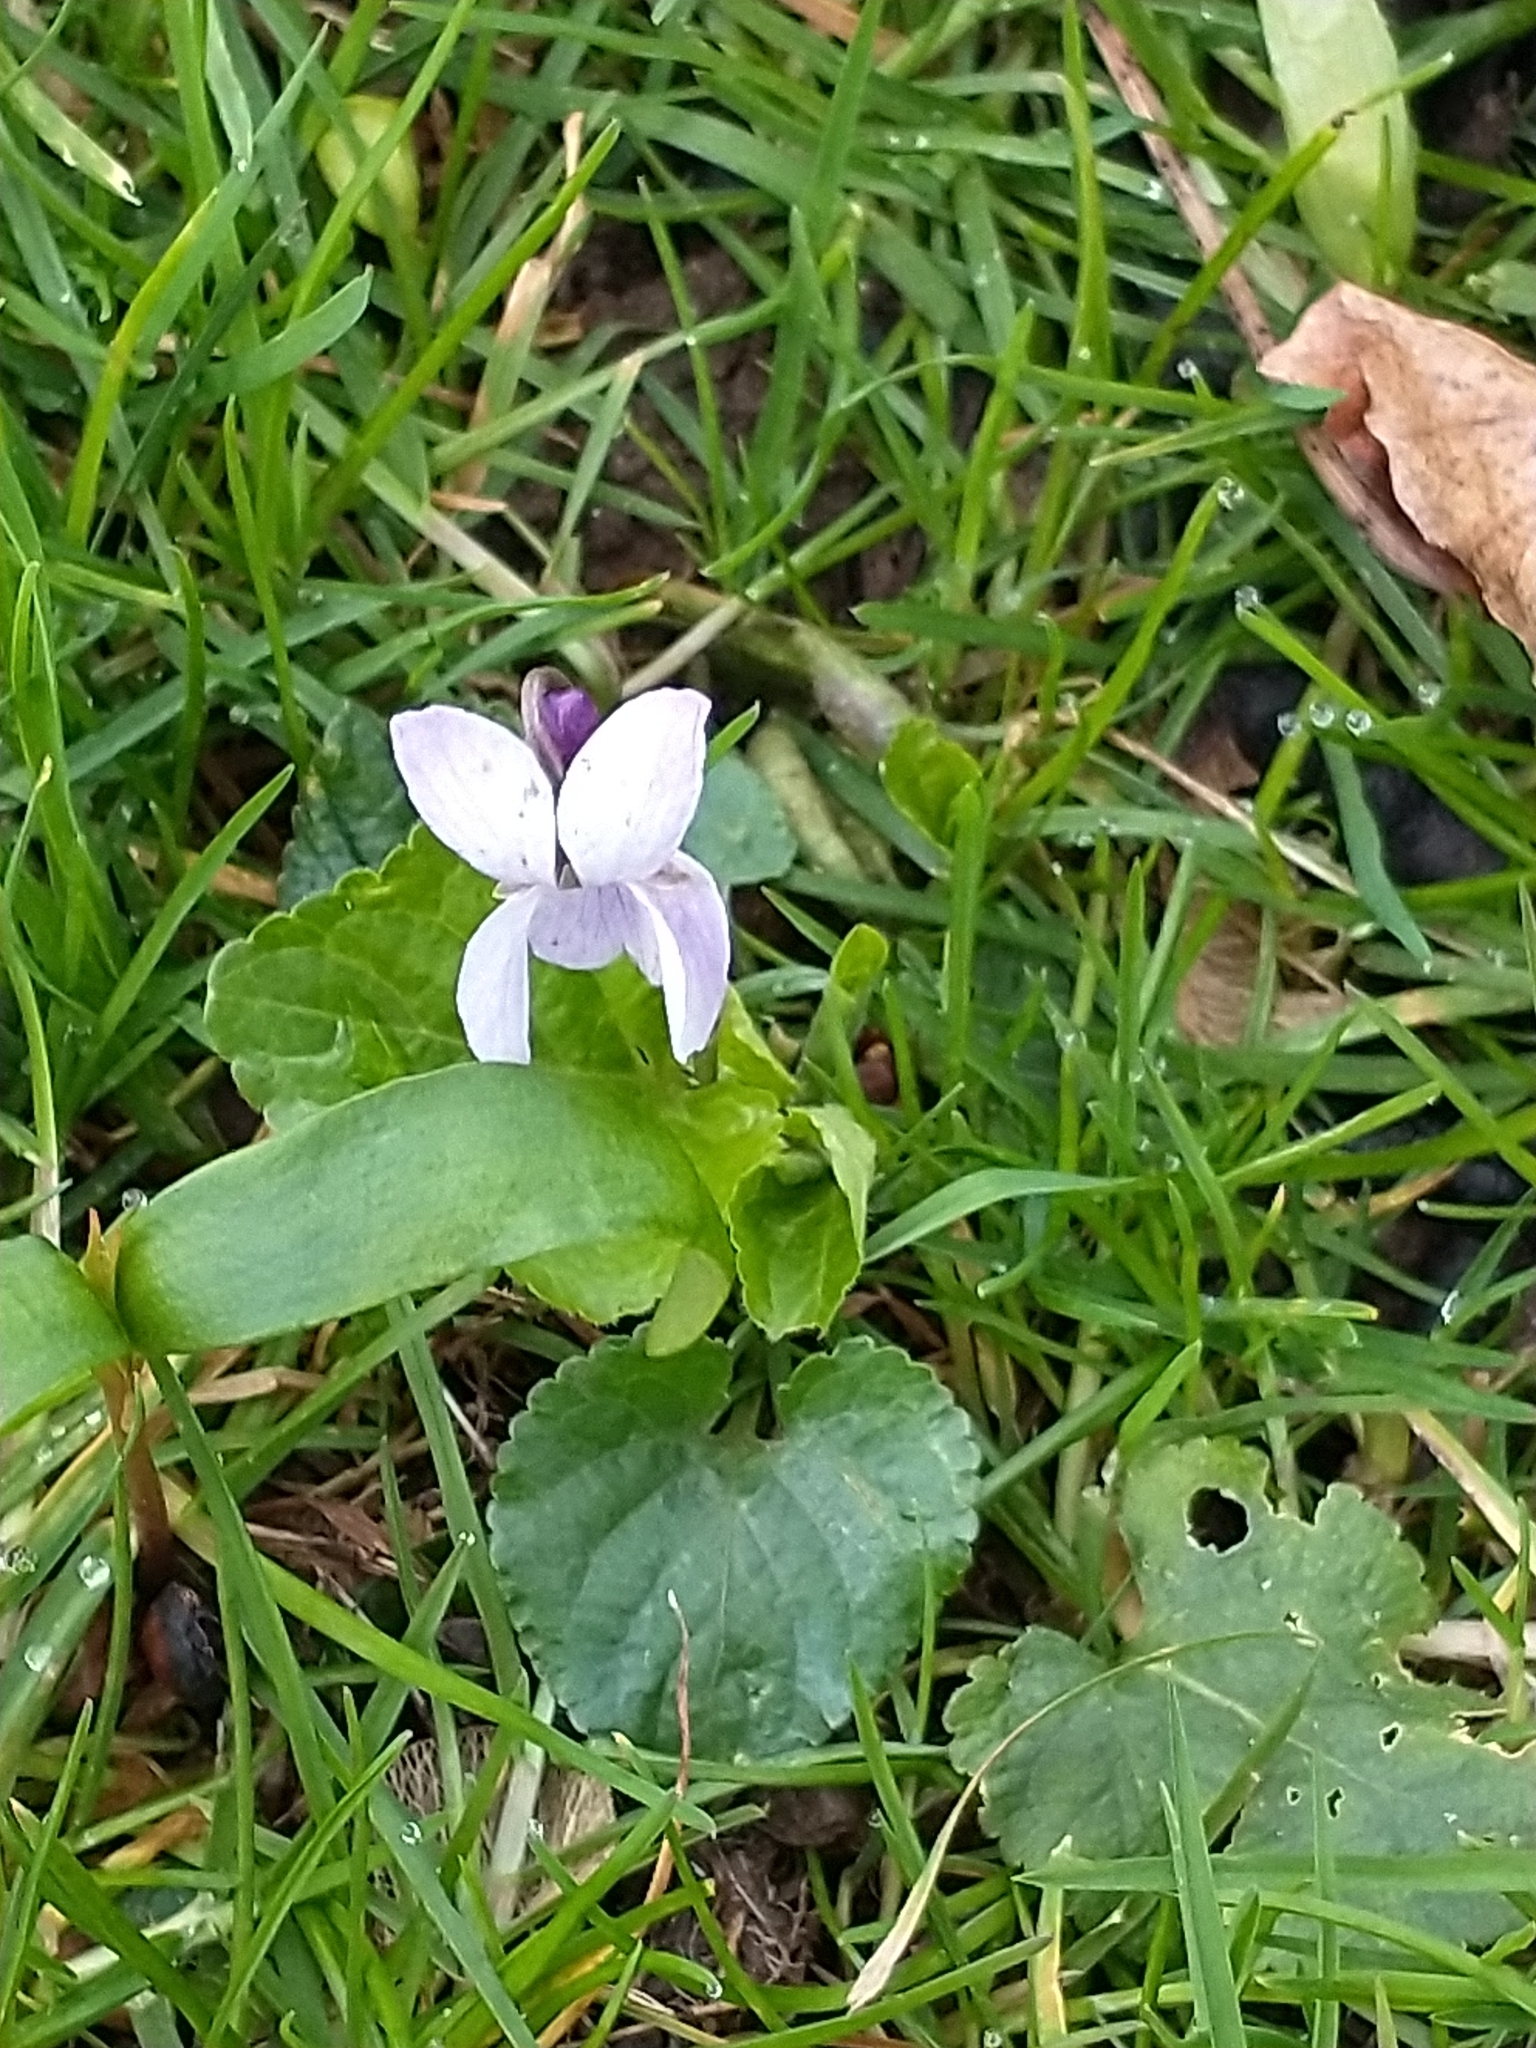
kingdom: Plantae
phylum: Tracheophyta
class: Magnoliopsida
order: Malpighiales
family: Violaceae
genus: Viola
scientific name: Viola odorata
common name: Sweet violet
